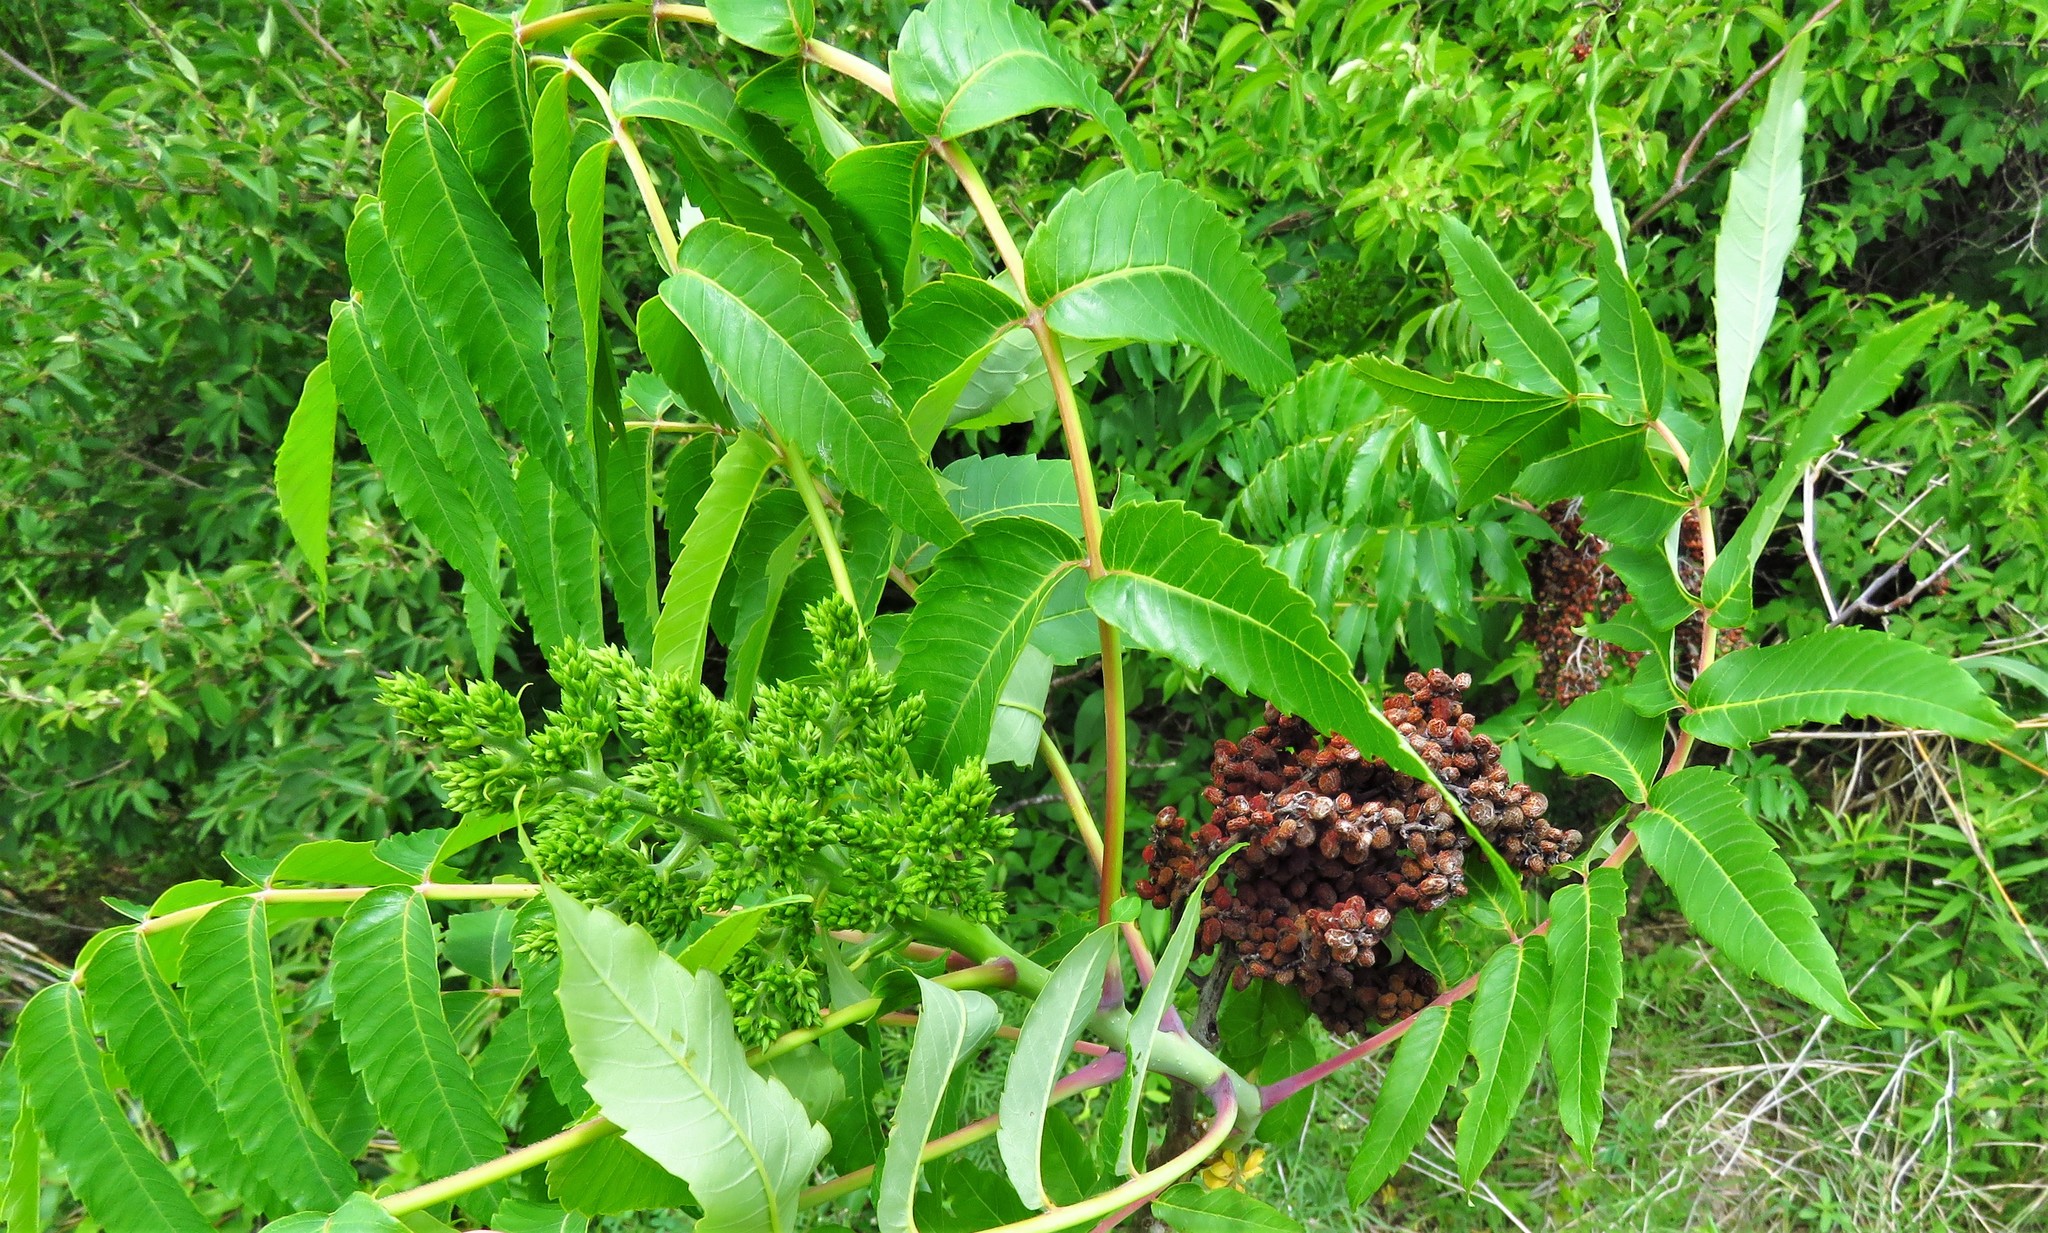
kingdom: Plantae
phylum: Tracheophyta
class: Magnoliopsida
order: Sapindales
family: Anacardiaceae
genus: Rhus
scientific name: Rhus glabra
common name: Scarlet sumac
